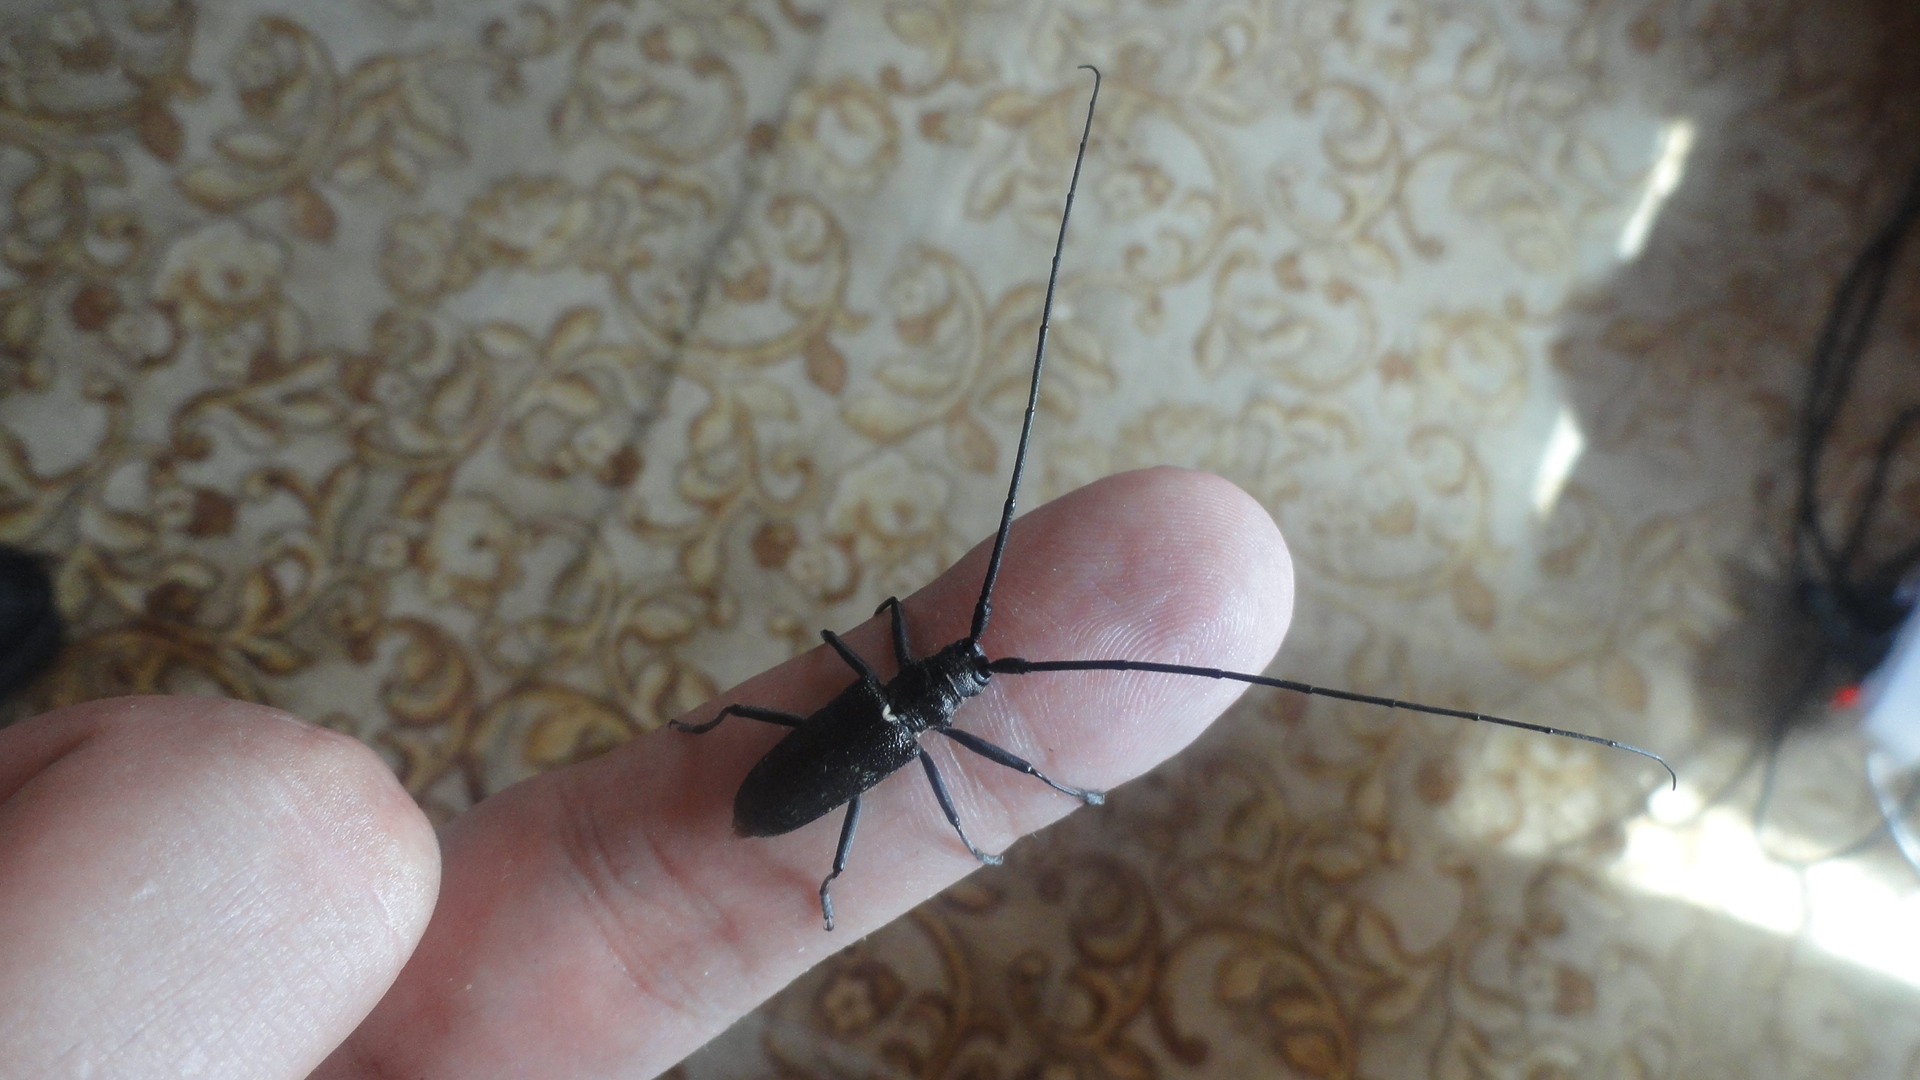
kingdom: Animalia
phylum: Arthropoda
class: Insecta
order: Coleoptera
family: Cerambycidae
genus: Monochamus
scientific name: Monochamus galloprovincialis
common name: Pine sawyer
